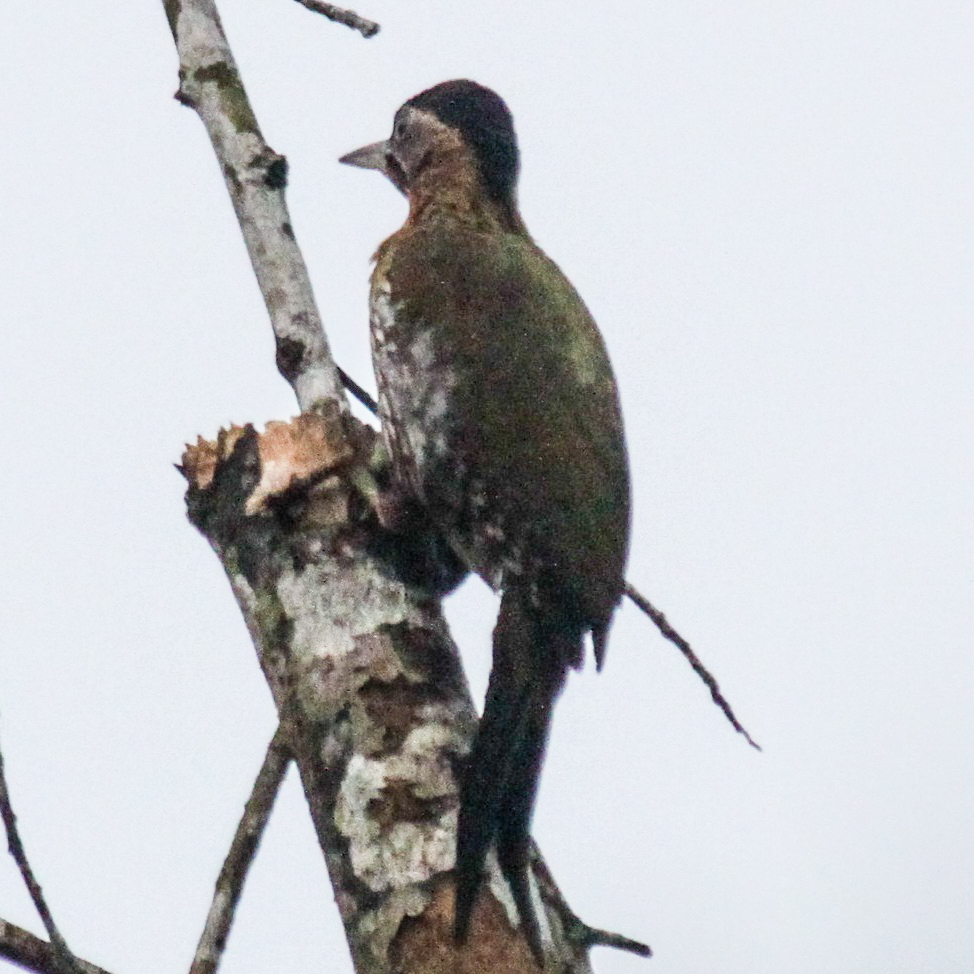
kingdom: Animalia
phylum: Chordata
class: Aves
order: Piciformes
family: Picidae
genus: Picus
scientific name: Picus vittatus
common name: Laced woodpecker
